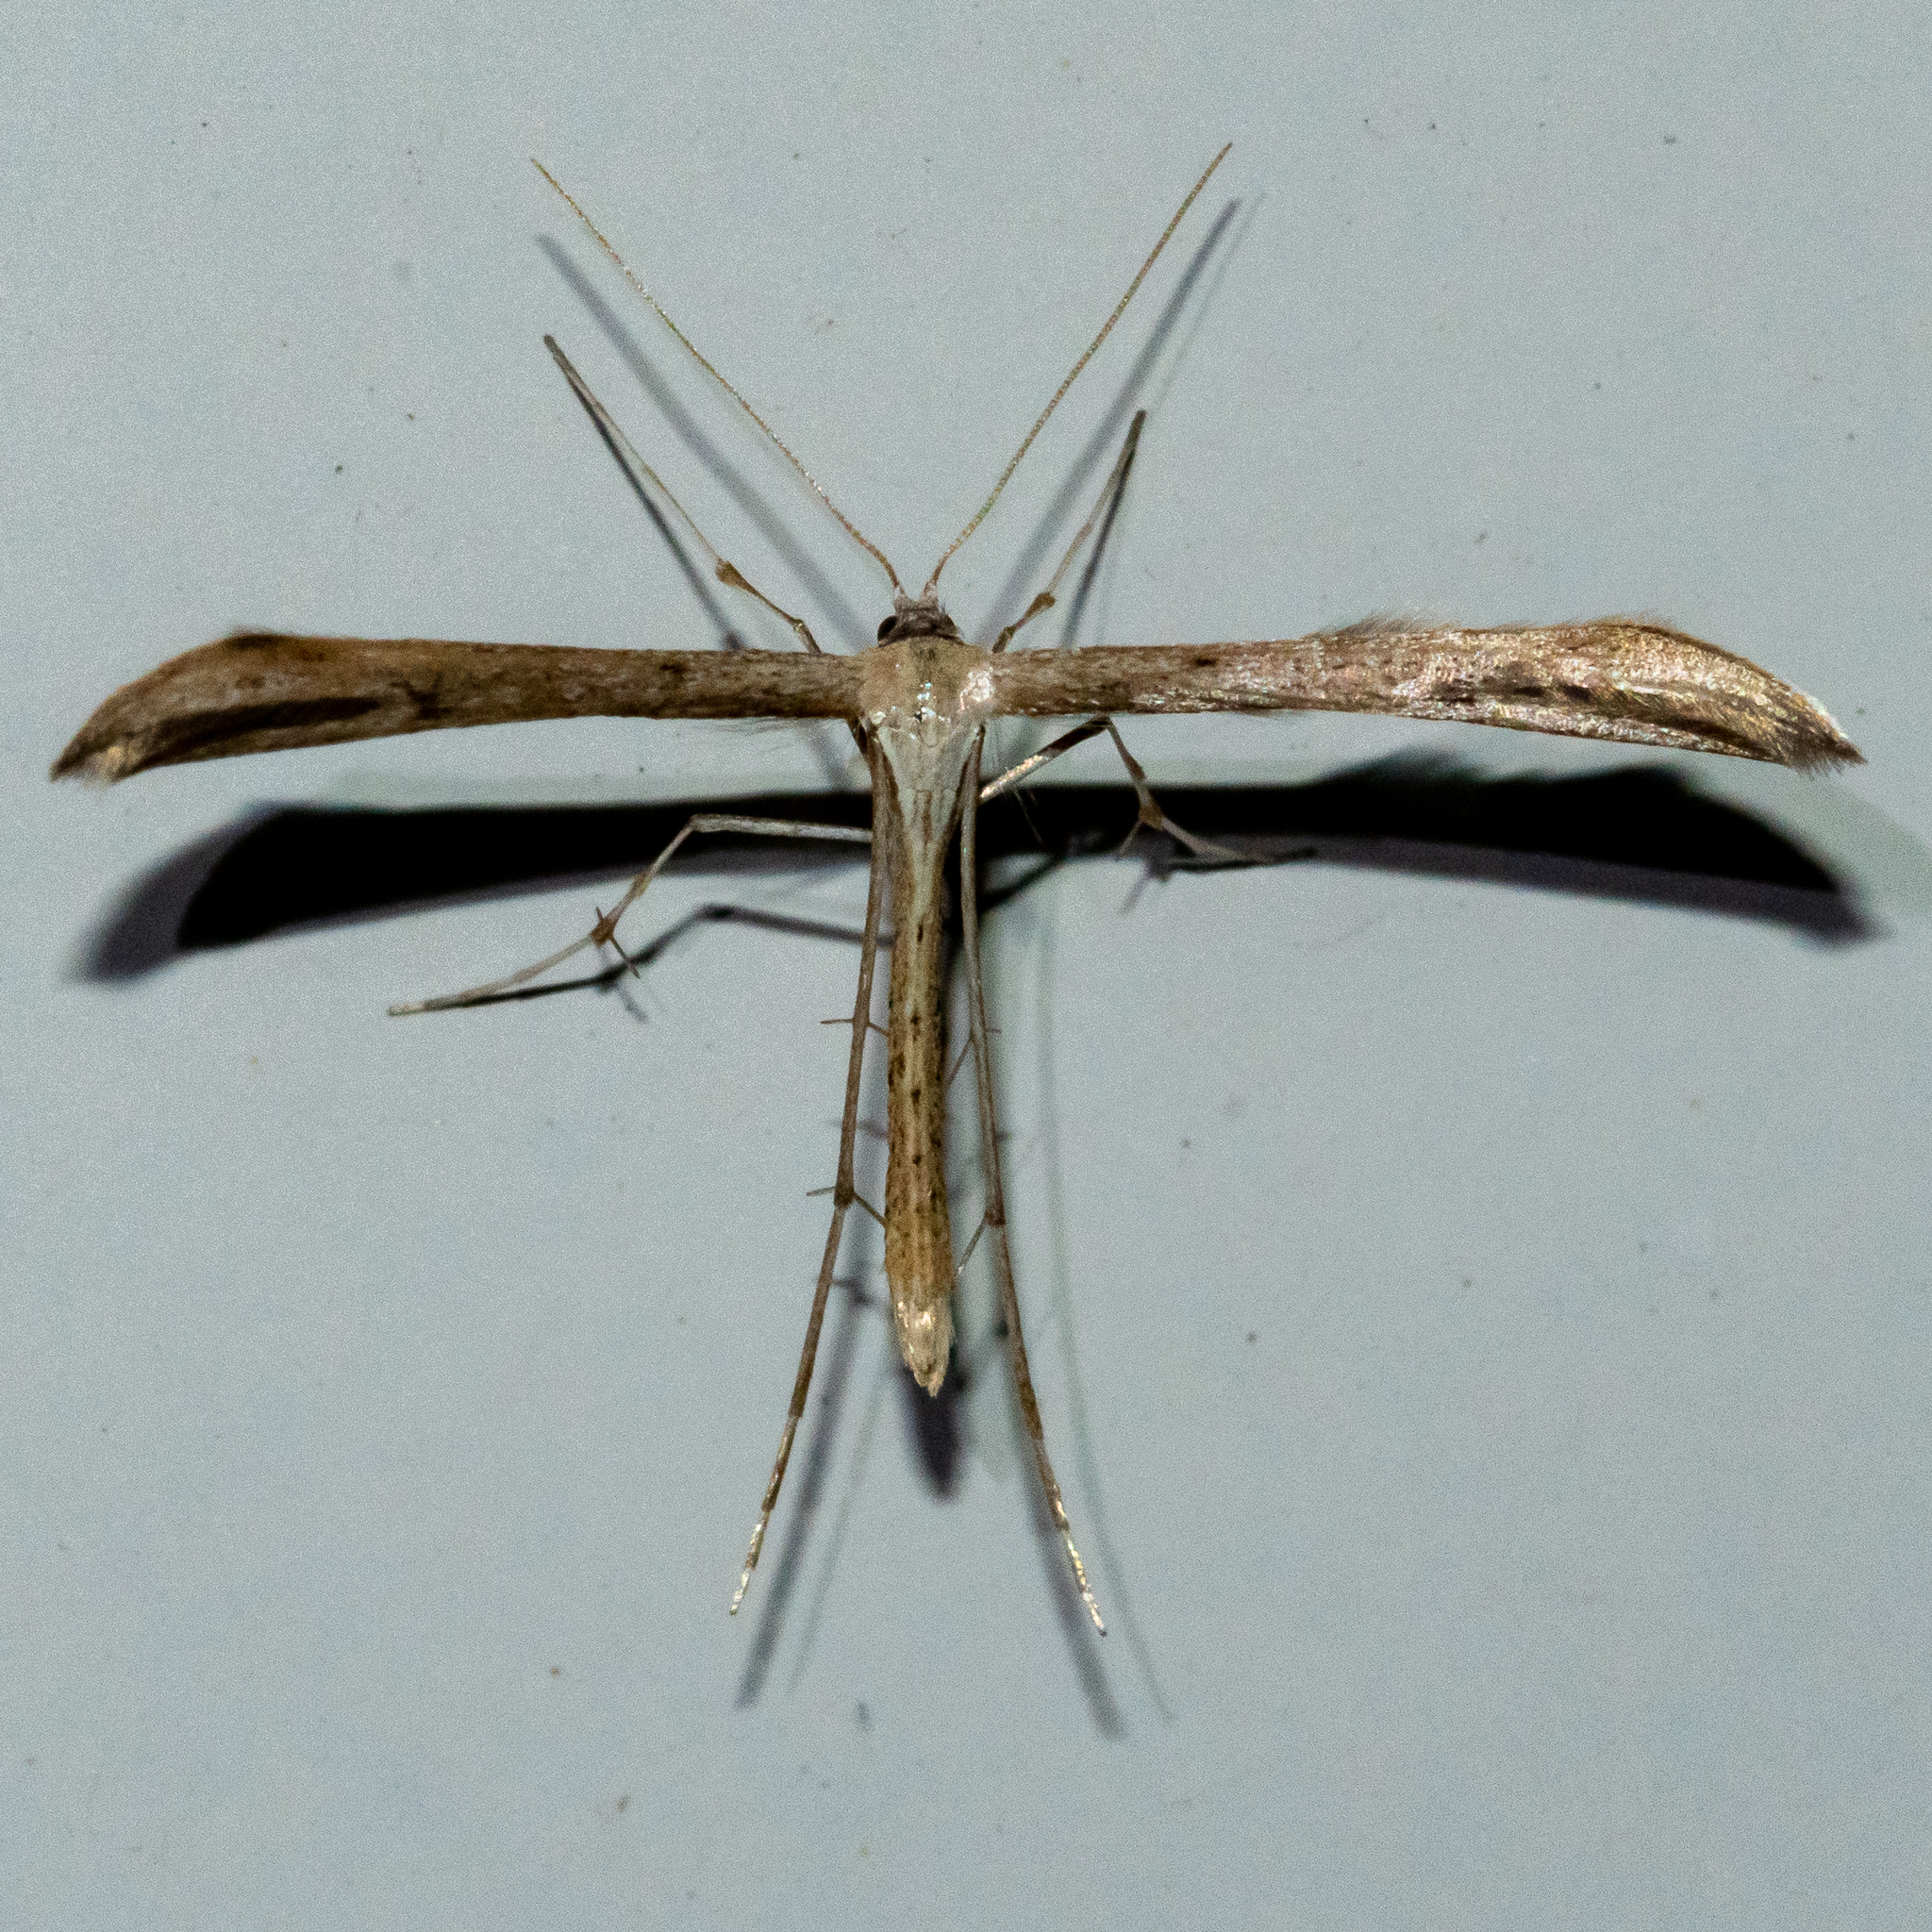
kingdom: Animalia
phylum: Arthropoda
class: Insecta
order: Lepidoptera
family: Pterophoridae
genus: Emmelina
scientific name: Emmelina monodactyla
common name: Common plume
